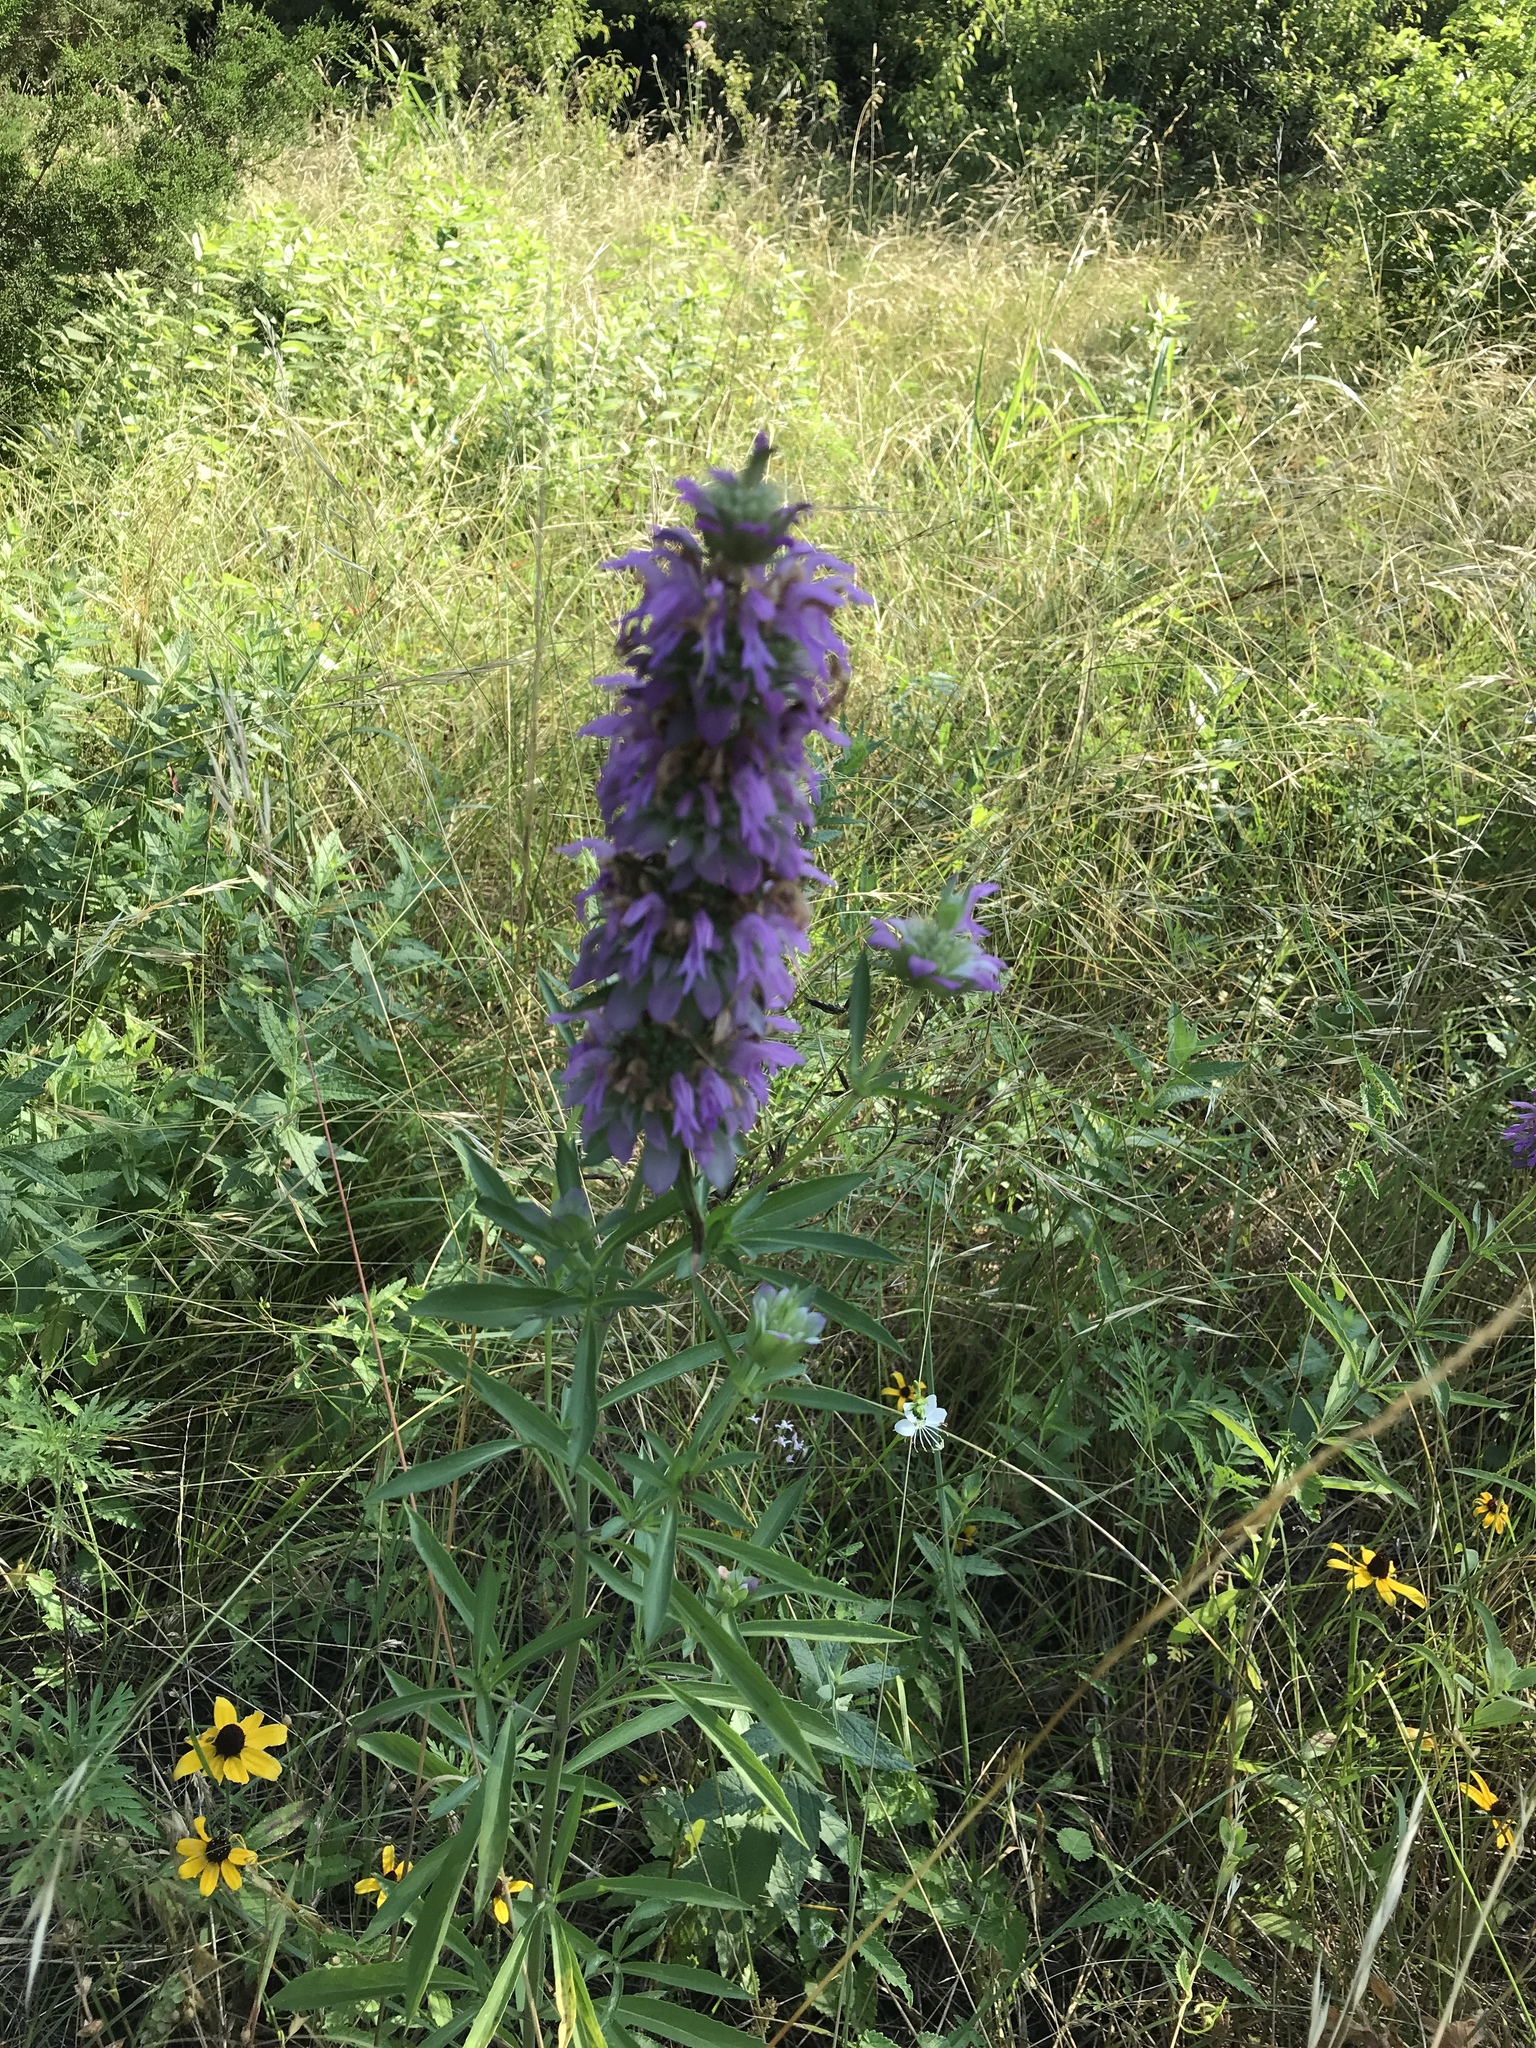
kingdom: Plantae
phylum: Tracheophyta
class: Magnoliopsida
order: Lamiales
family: Lamiaceae
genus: Monarda
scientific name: Monarda citriodora
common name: Lemon beebalm
